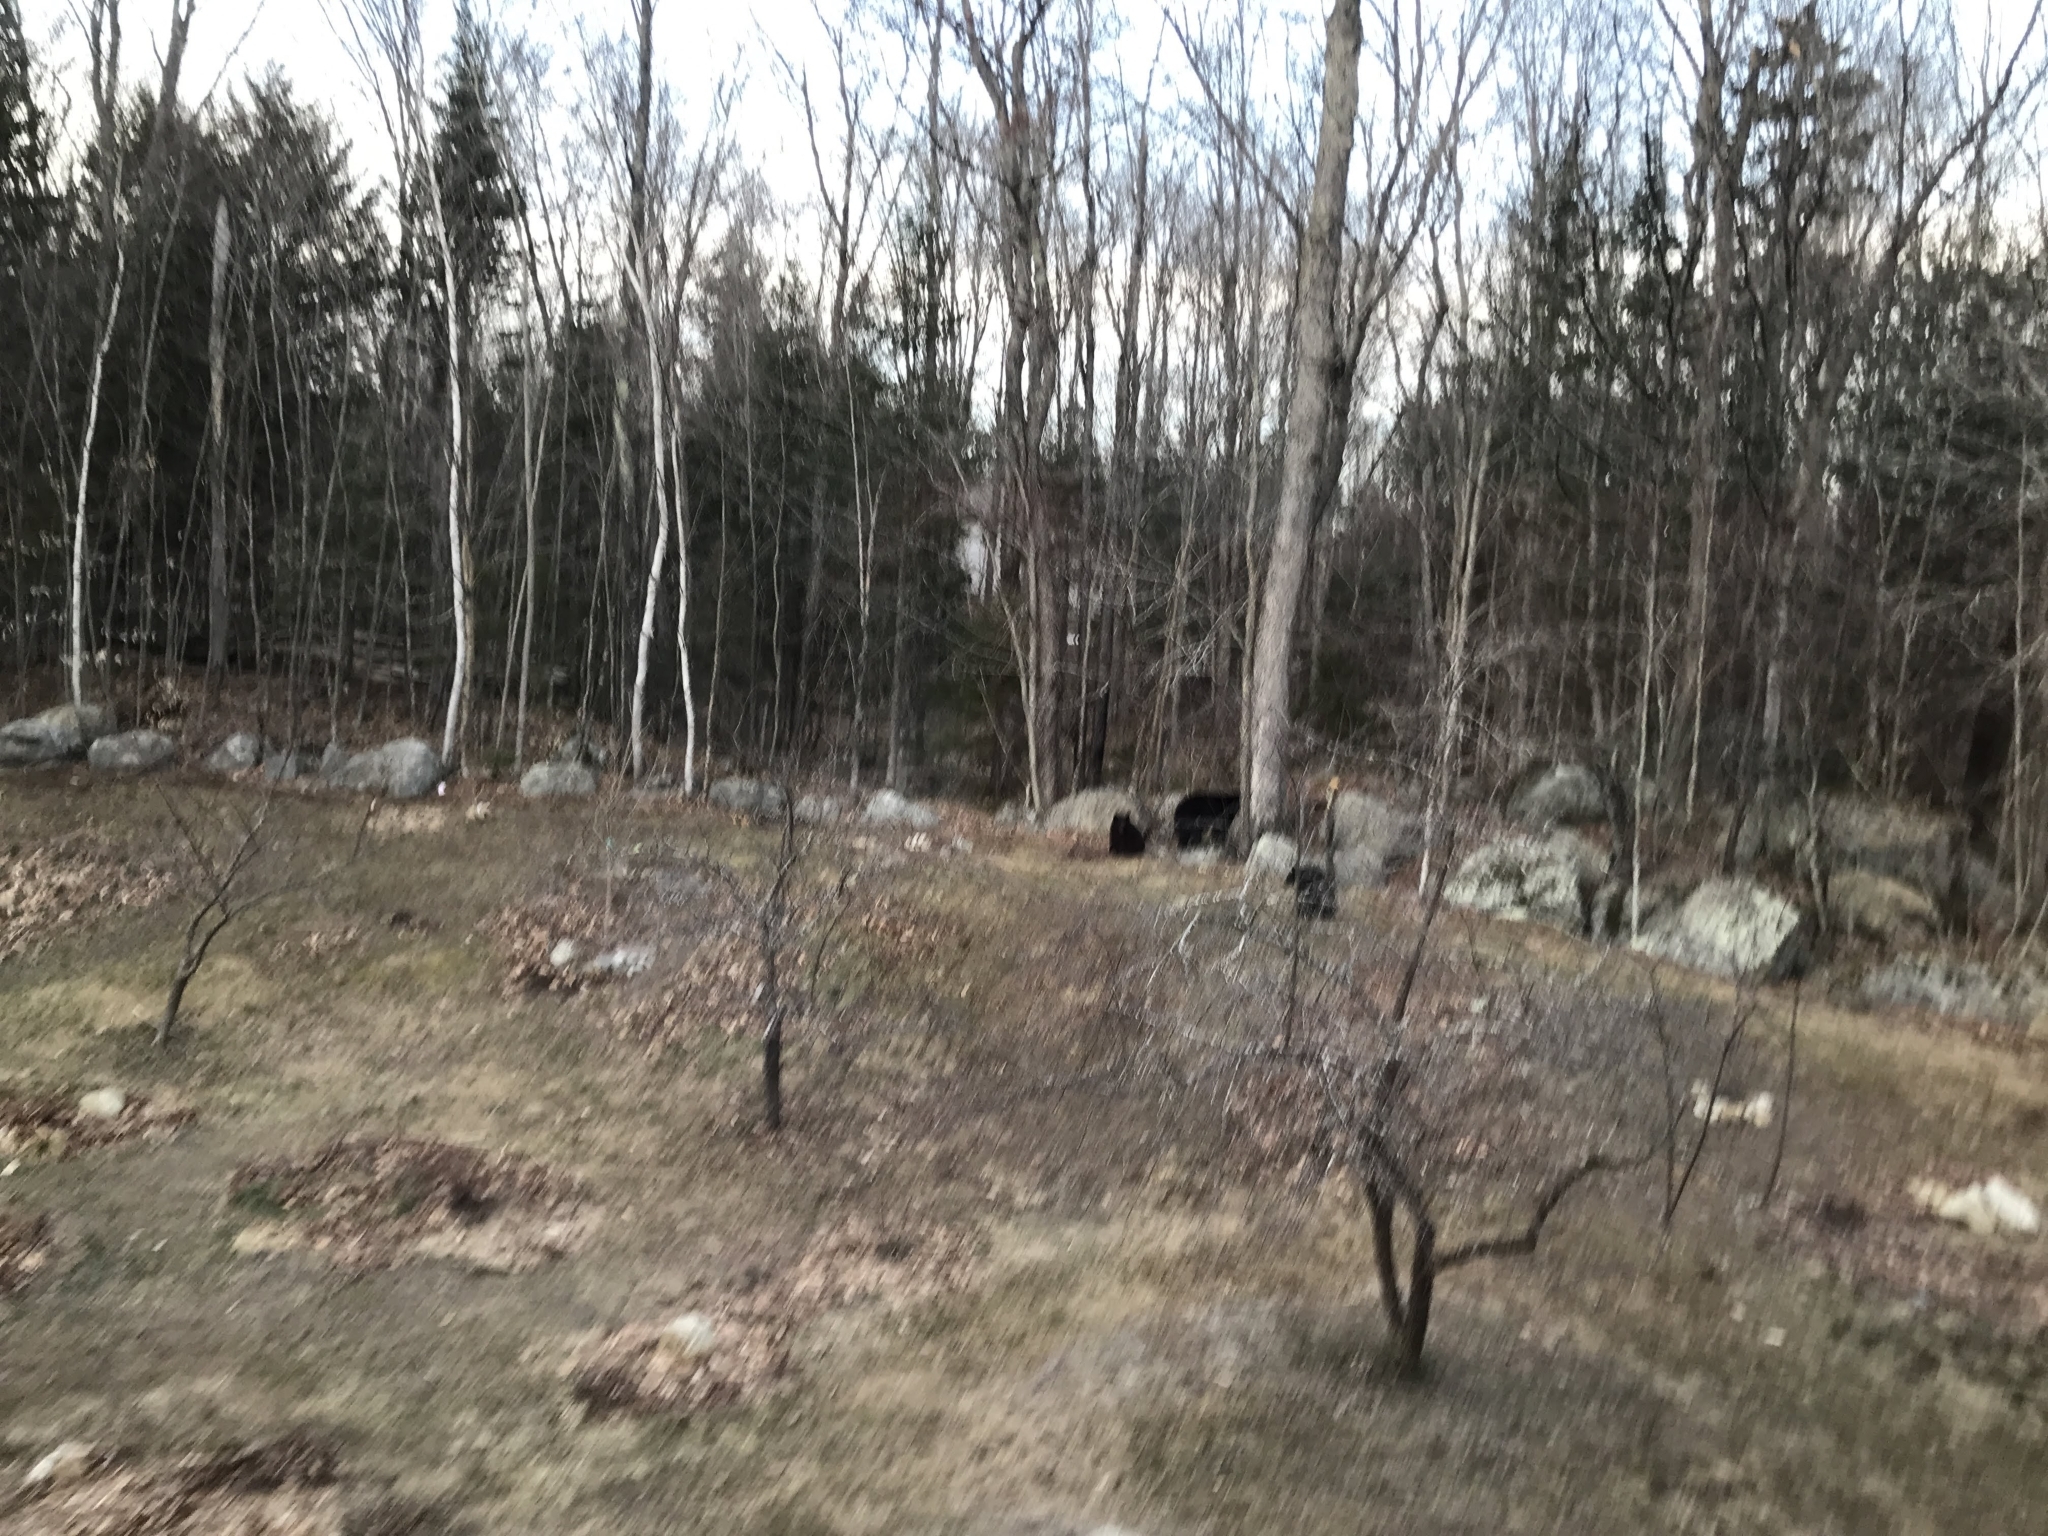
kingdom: Animalia
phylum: Chordata
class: Mammalia
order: Carnivora
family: Ursidae
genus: Ursus
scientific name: Ursus americanus
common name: American black bear
